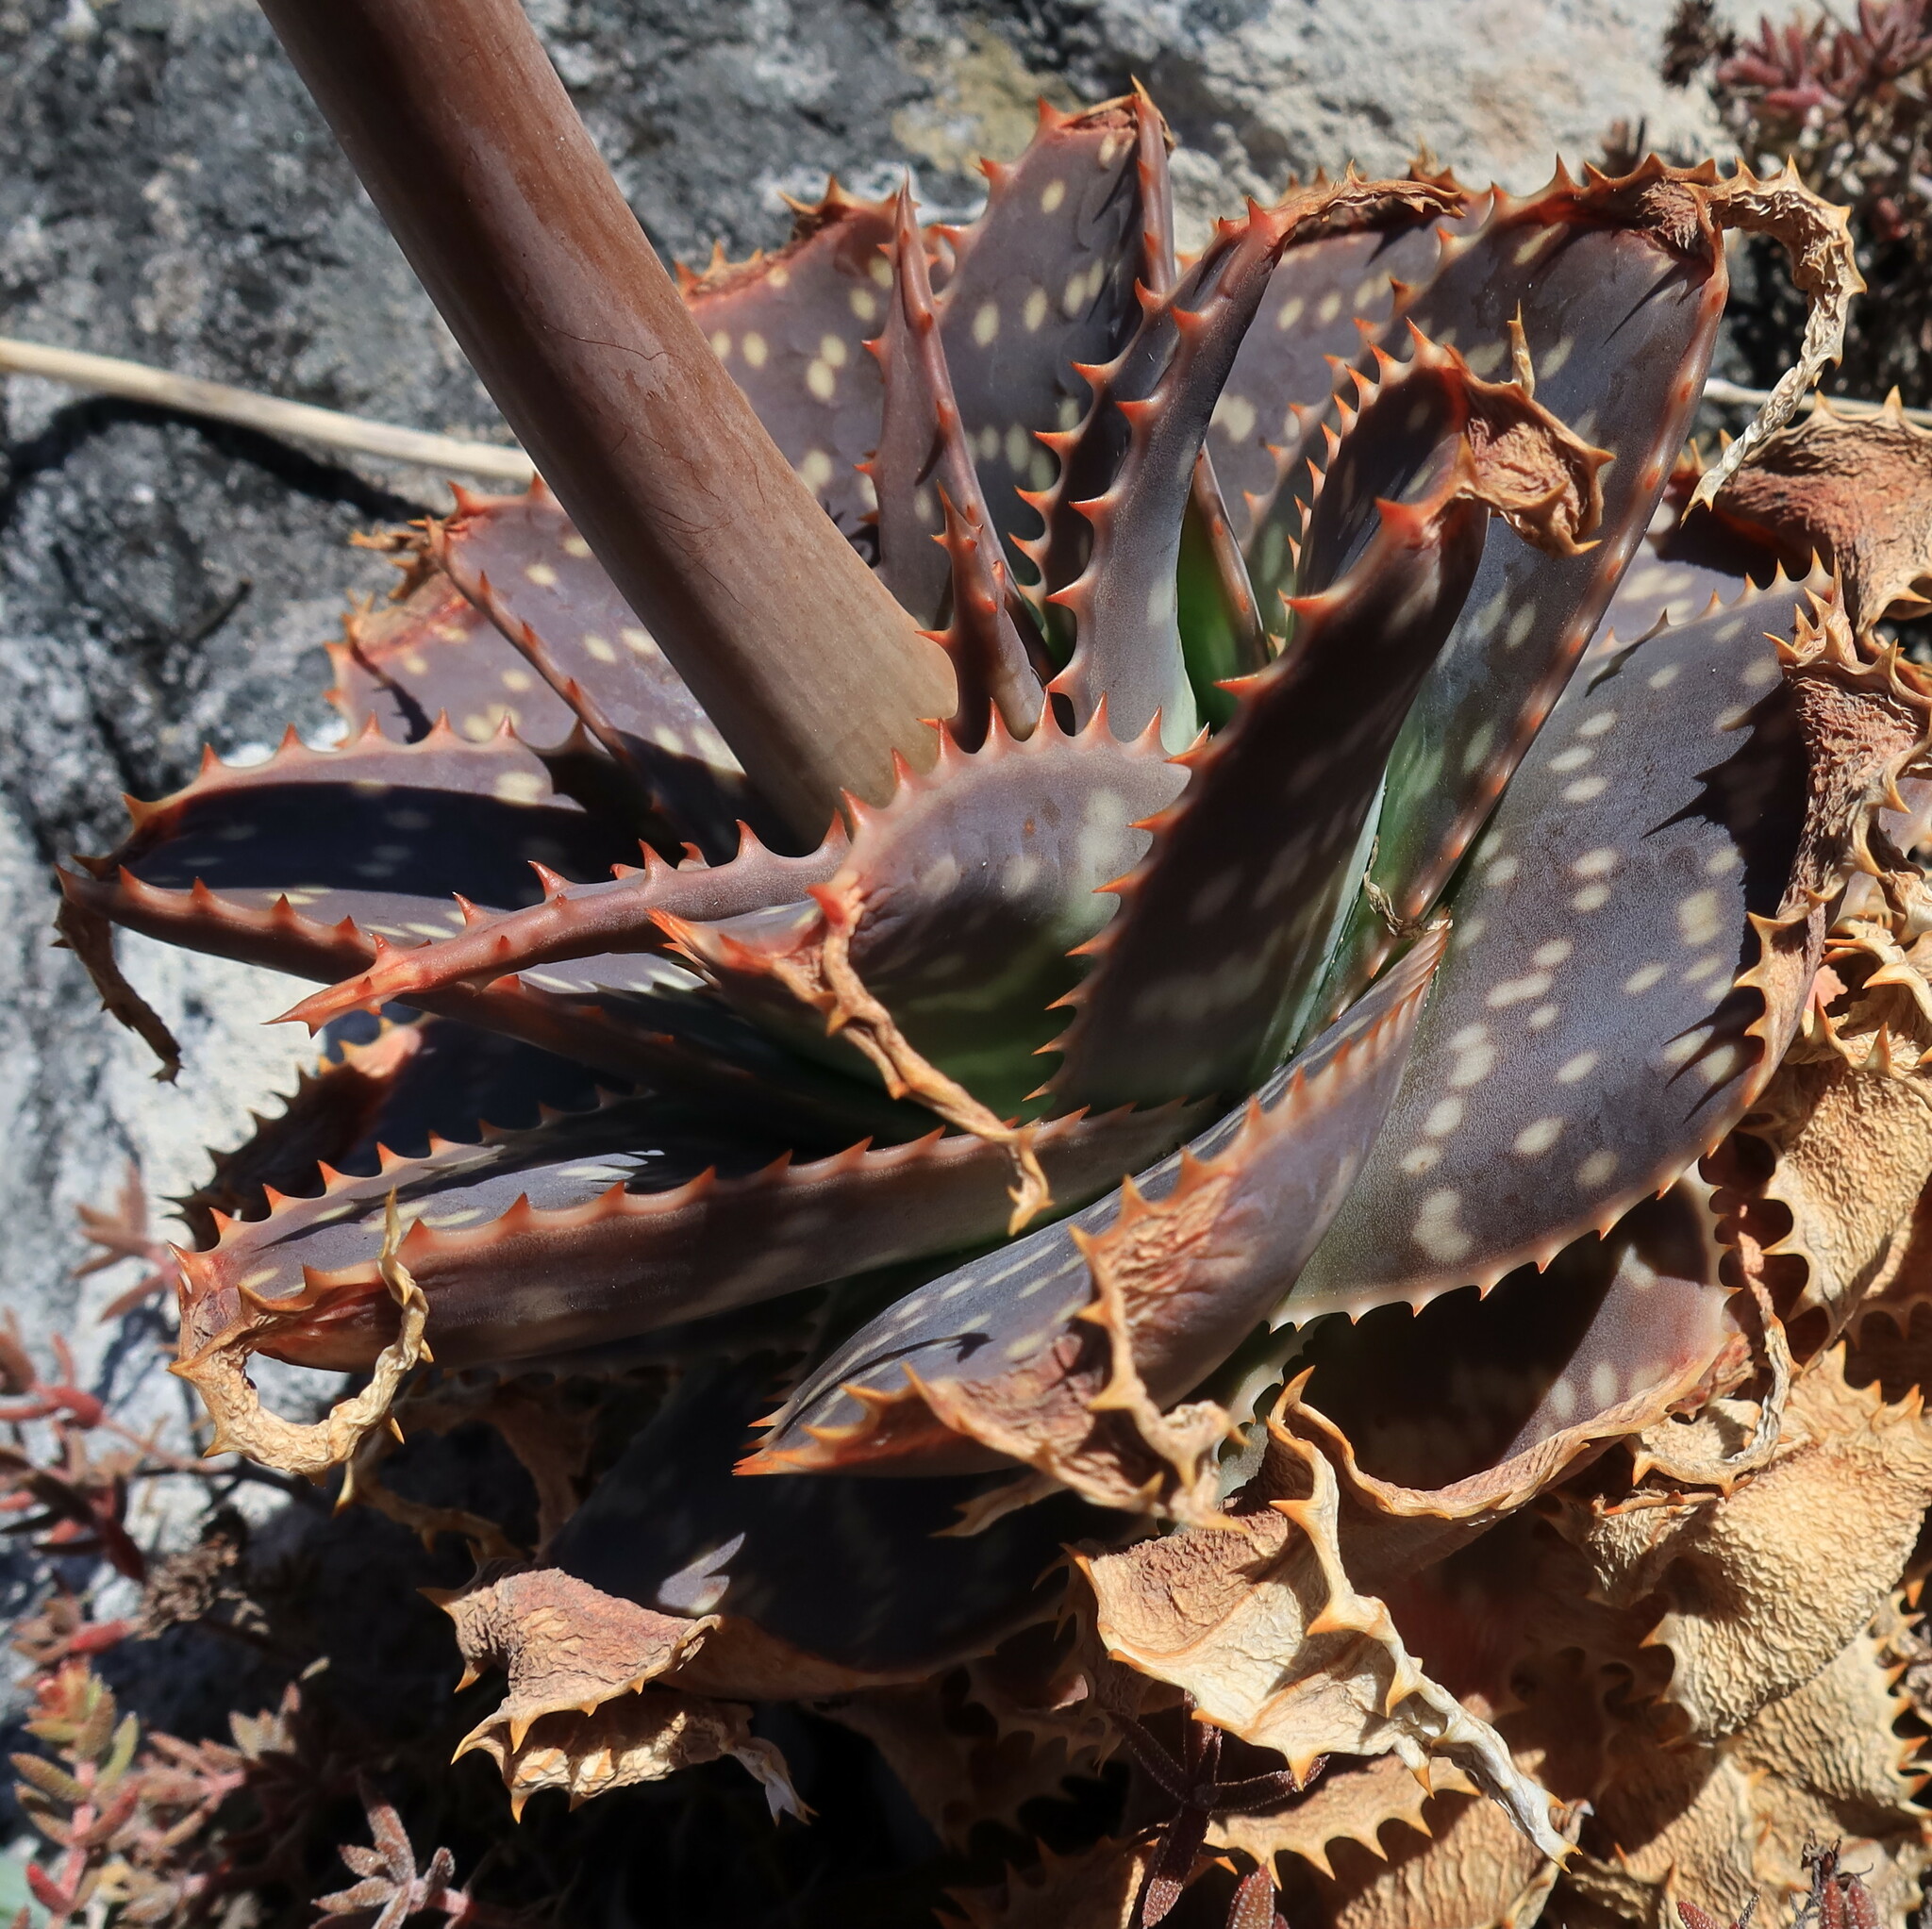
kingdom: Plantae
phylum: Tracheophyta
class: Liliopsida
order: Asparagales
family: Asphodelaceae
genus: Aloe
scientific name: Aloe maculata
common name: Broadleaf aloe
